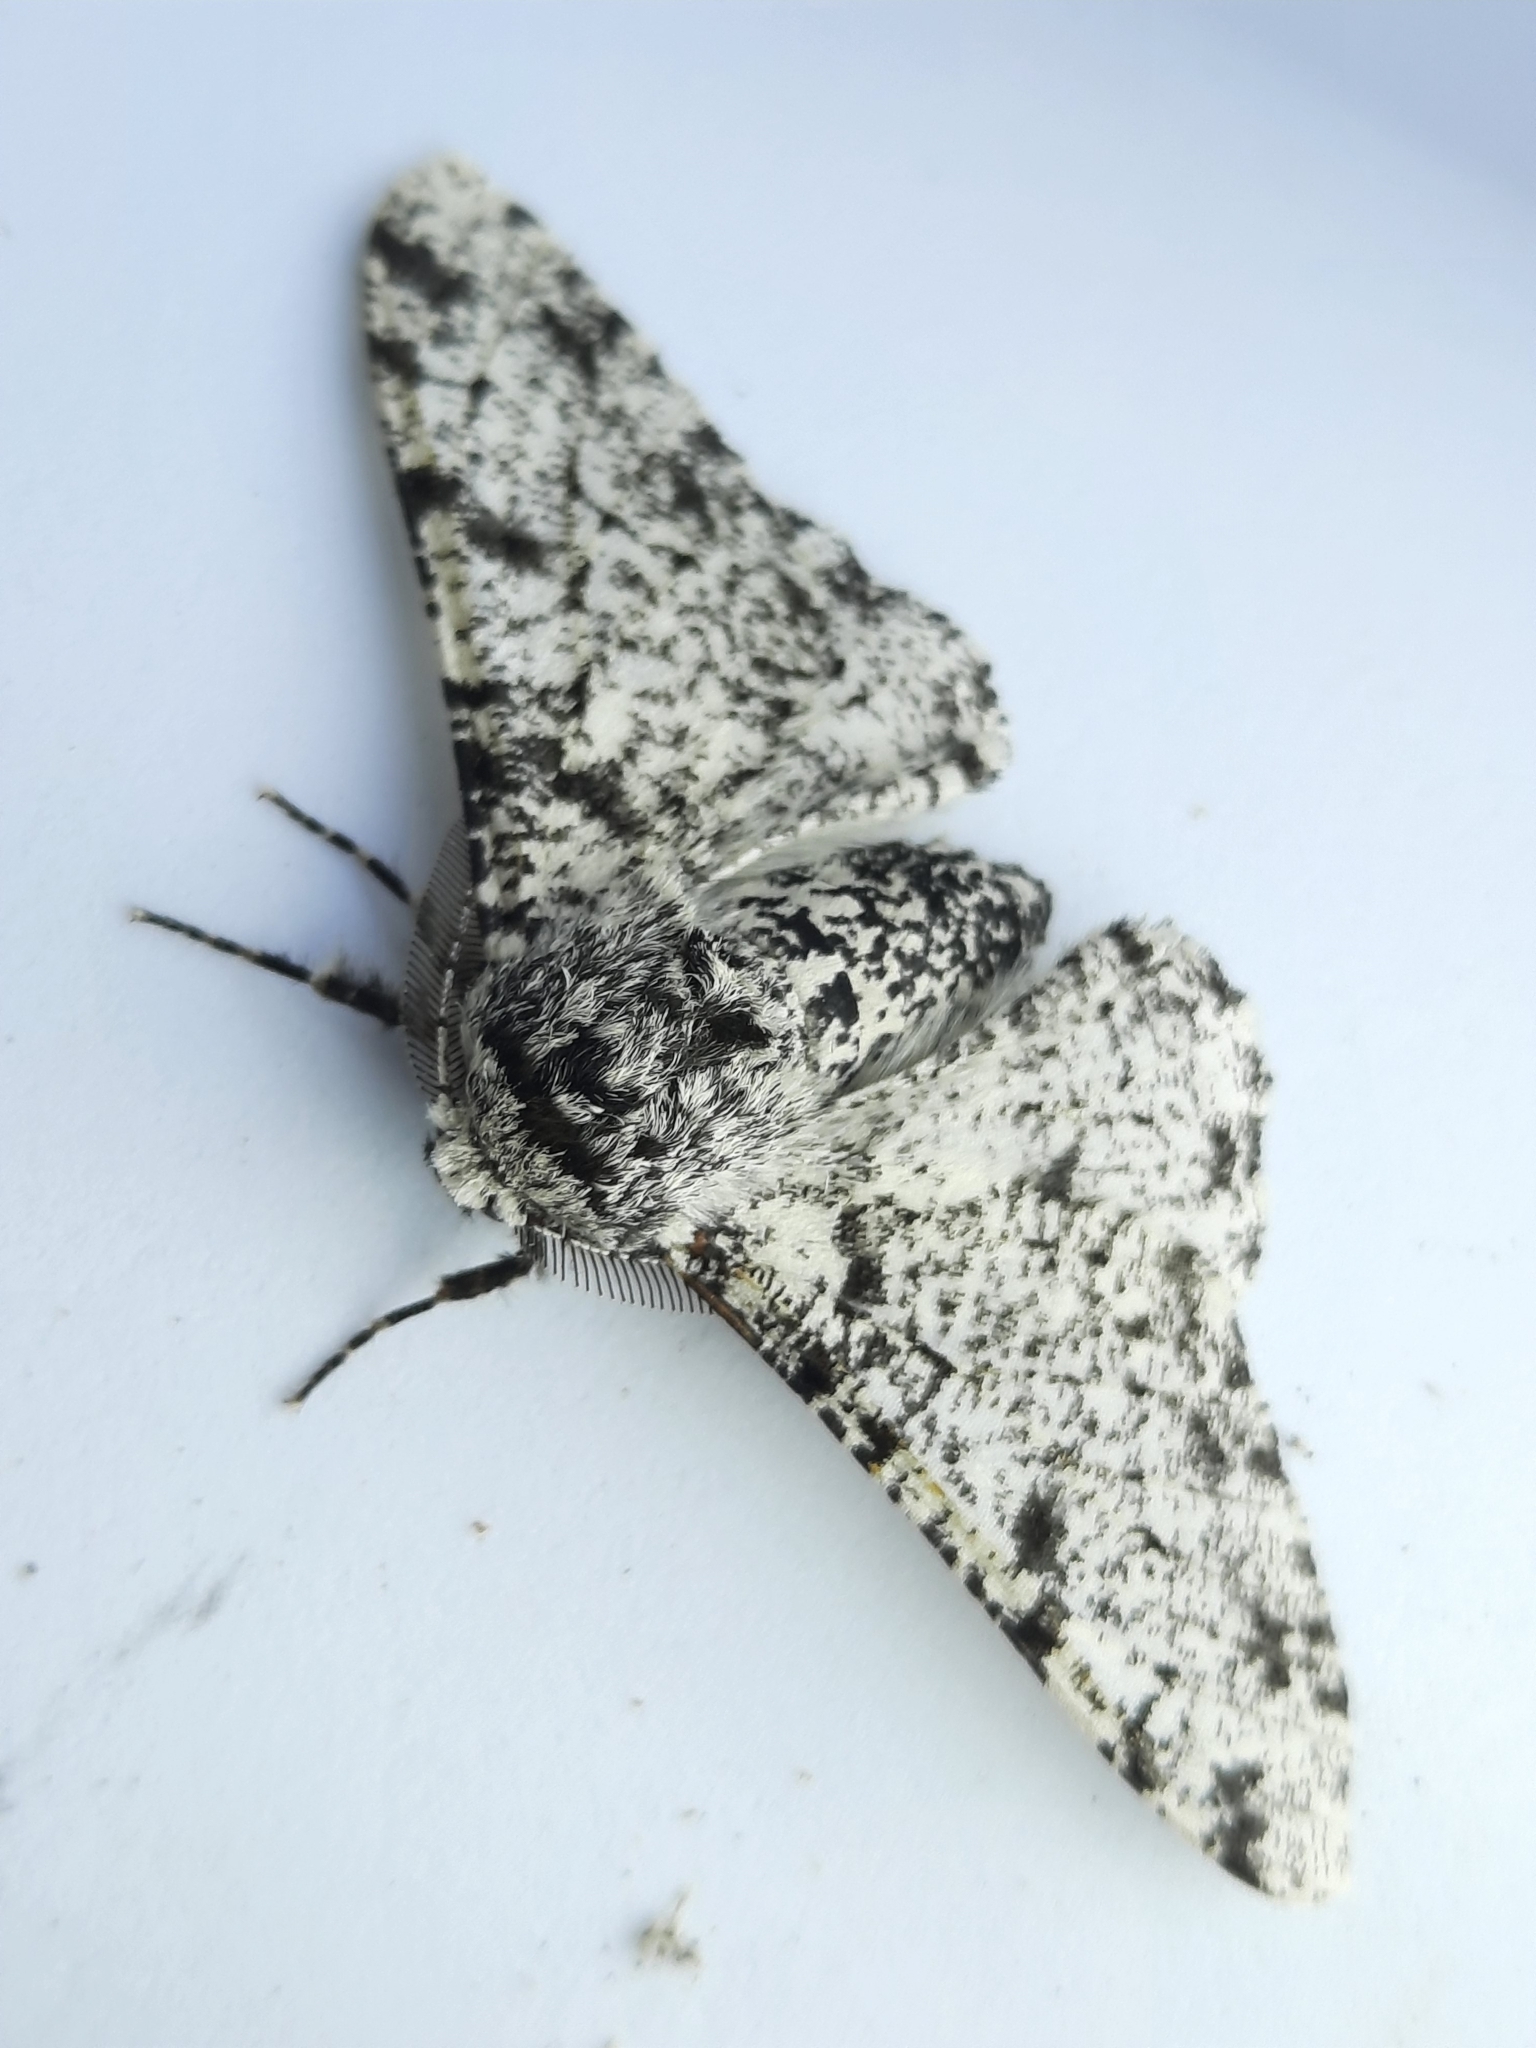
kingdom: Animalia
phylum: Arthropoda
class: Insecta
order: Lepidoptera
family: Geometridae
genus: Biston
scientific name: Biston betularia
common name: Peppered moth
